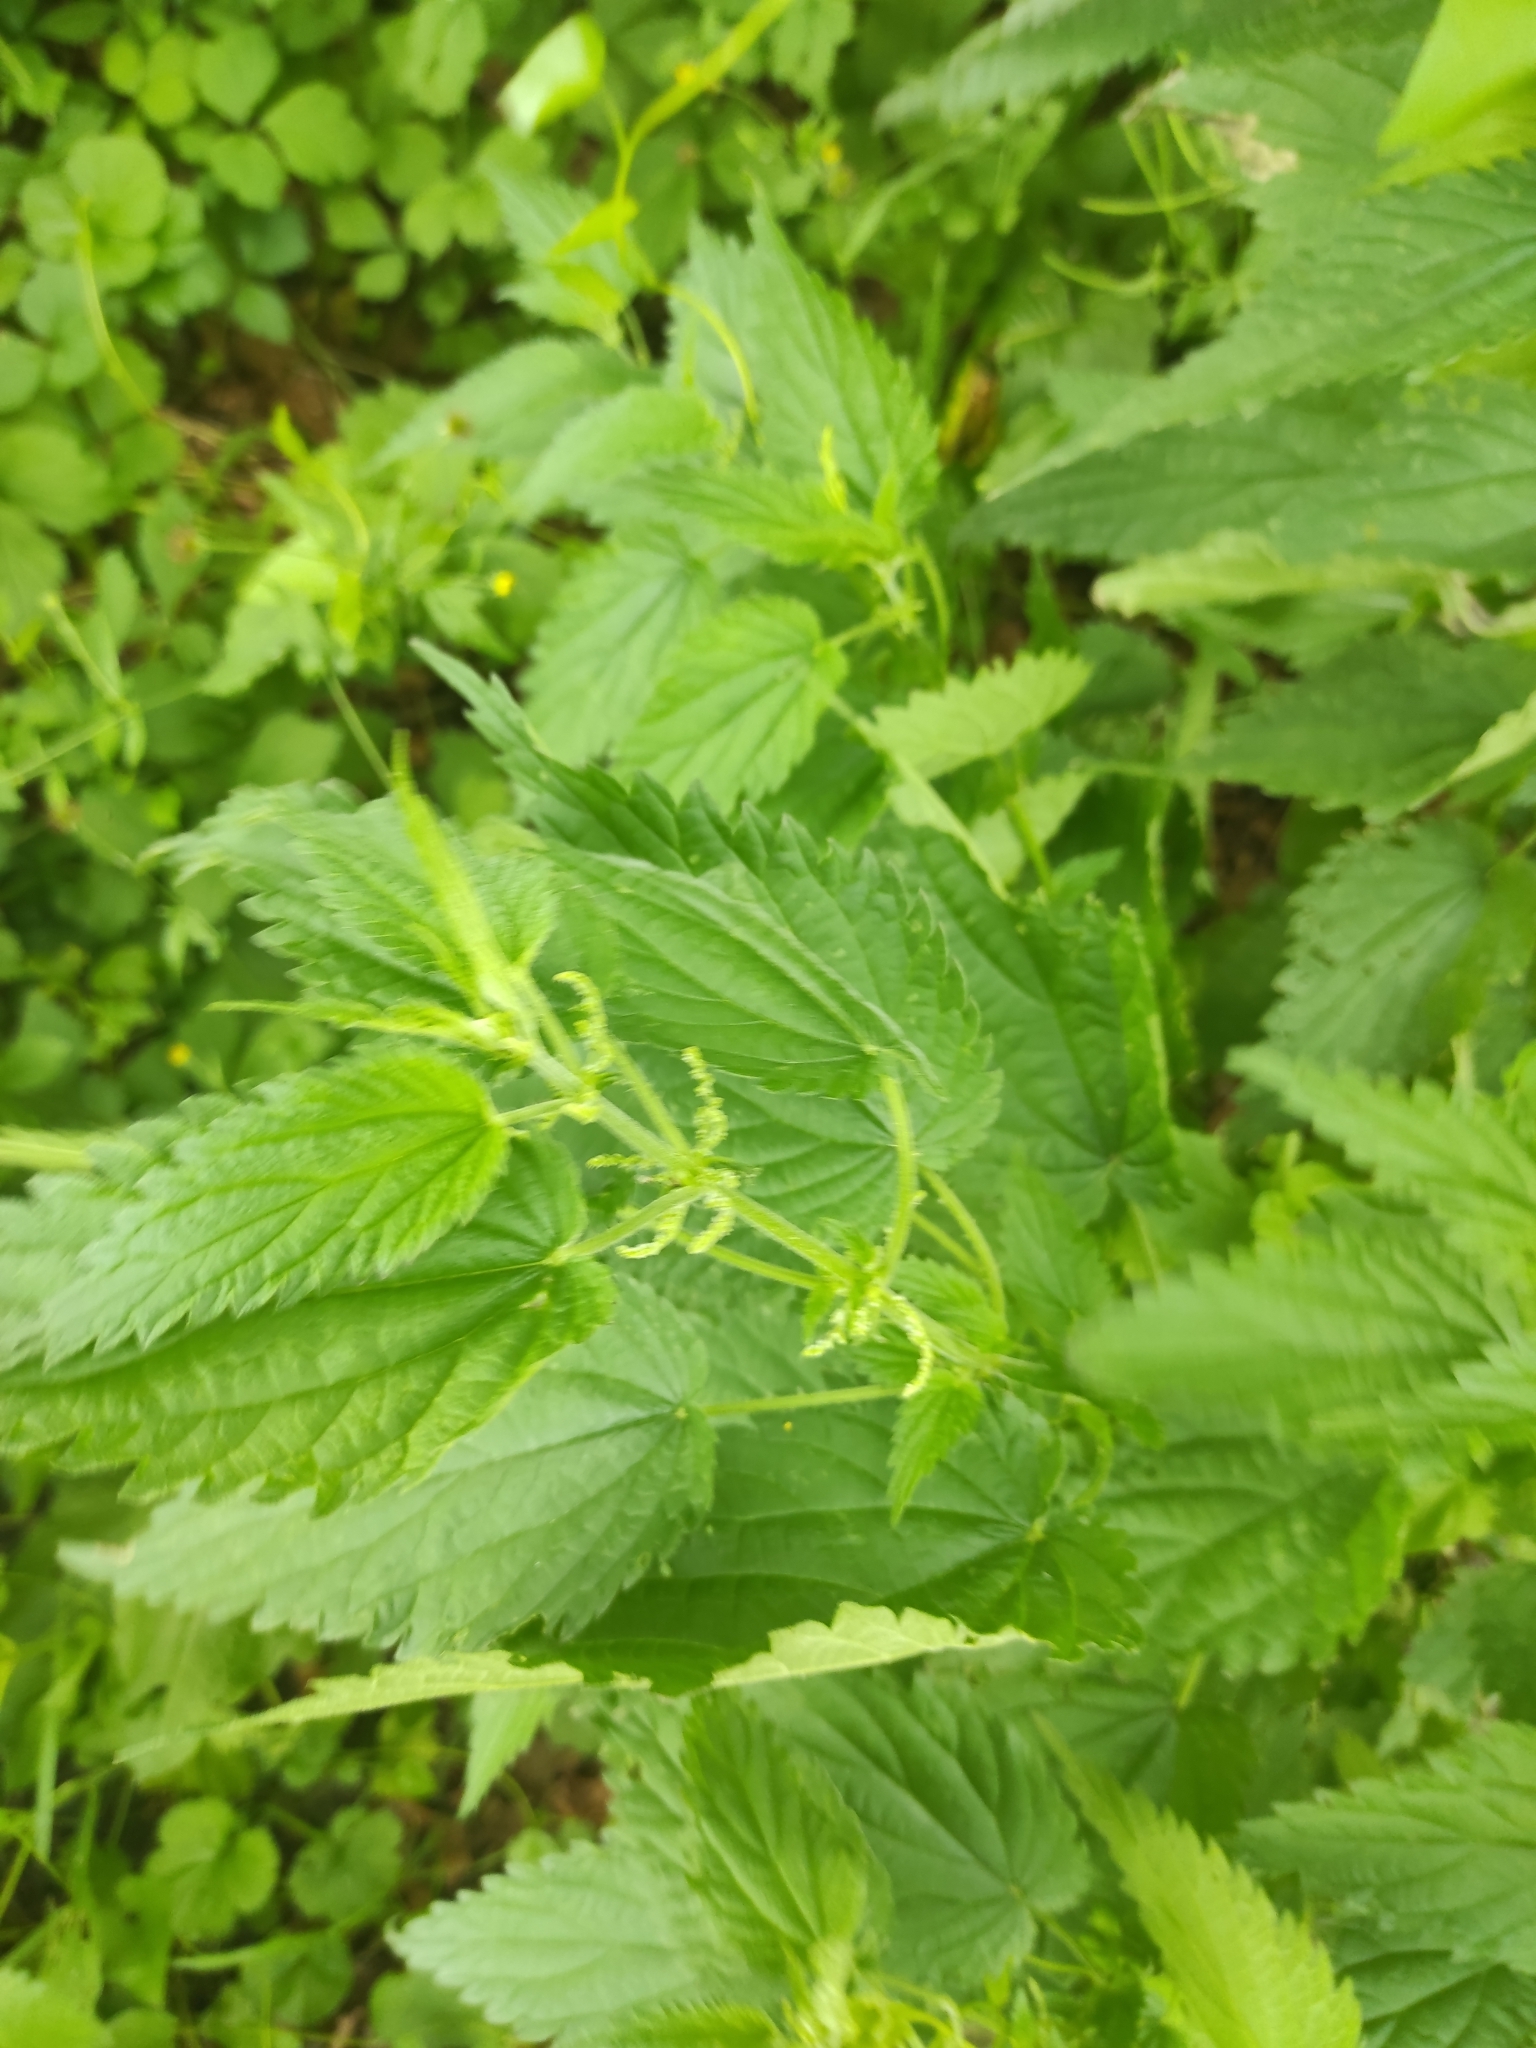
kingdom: Plantae
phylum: Tracheophyta
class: Magnoliopsida
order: Rosales
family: Urticaceae
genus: Urtica
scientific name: Urtica dioica
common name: Common nettle
